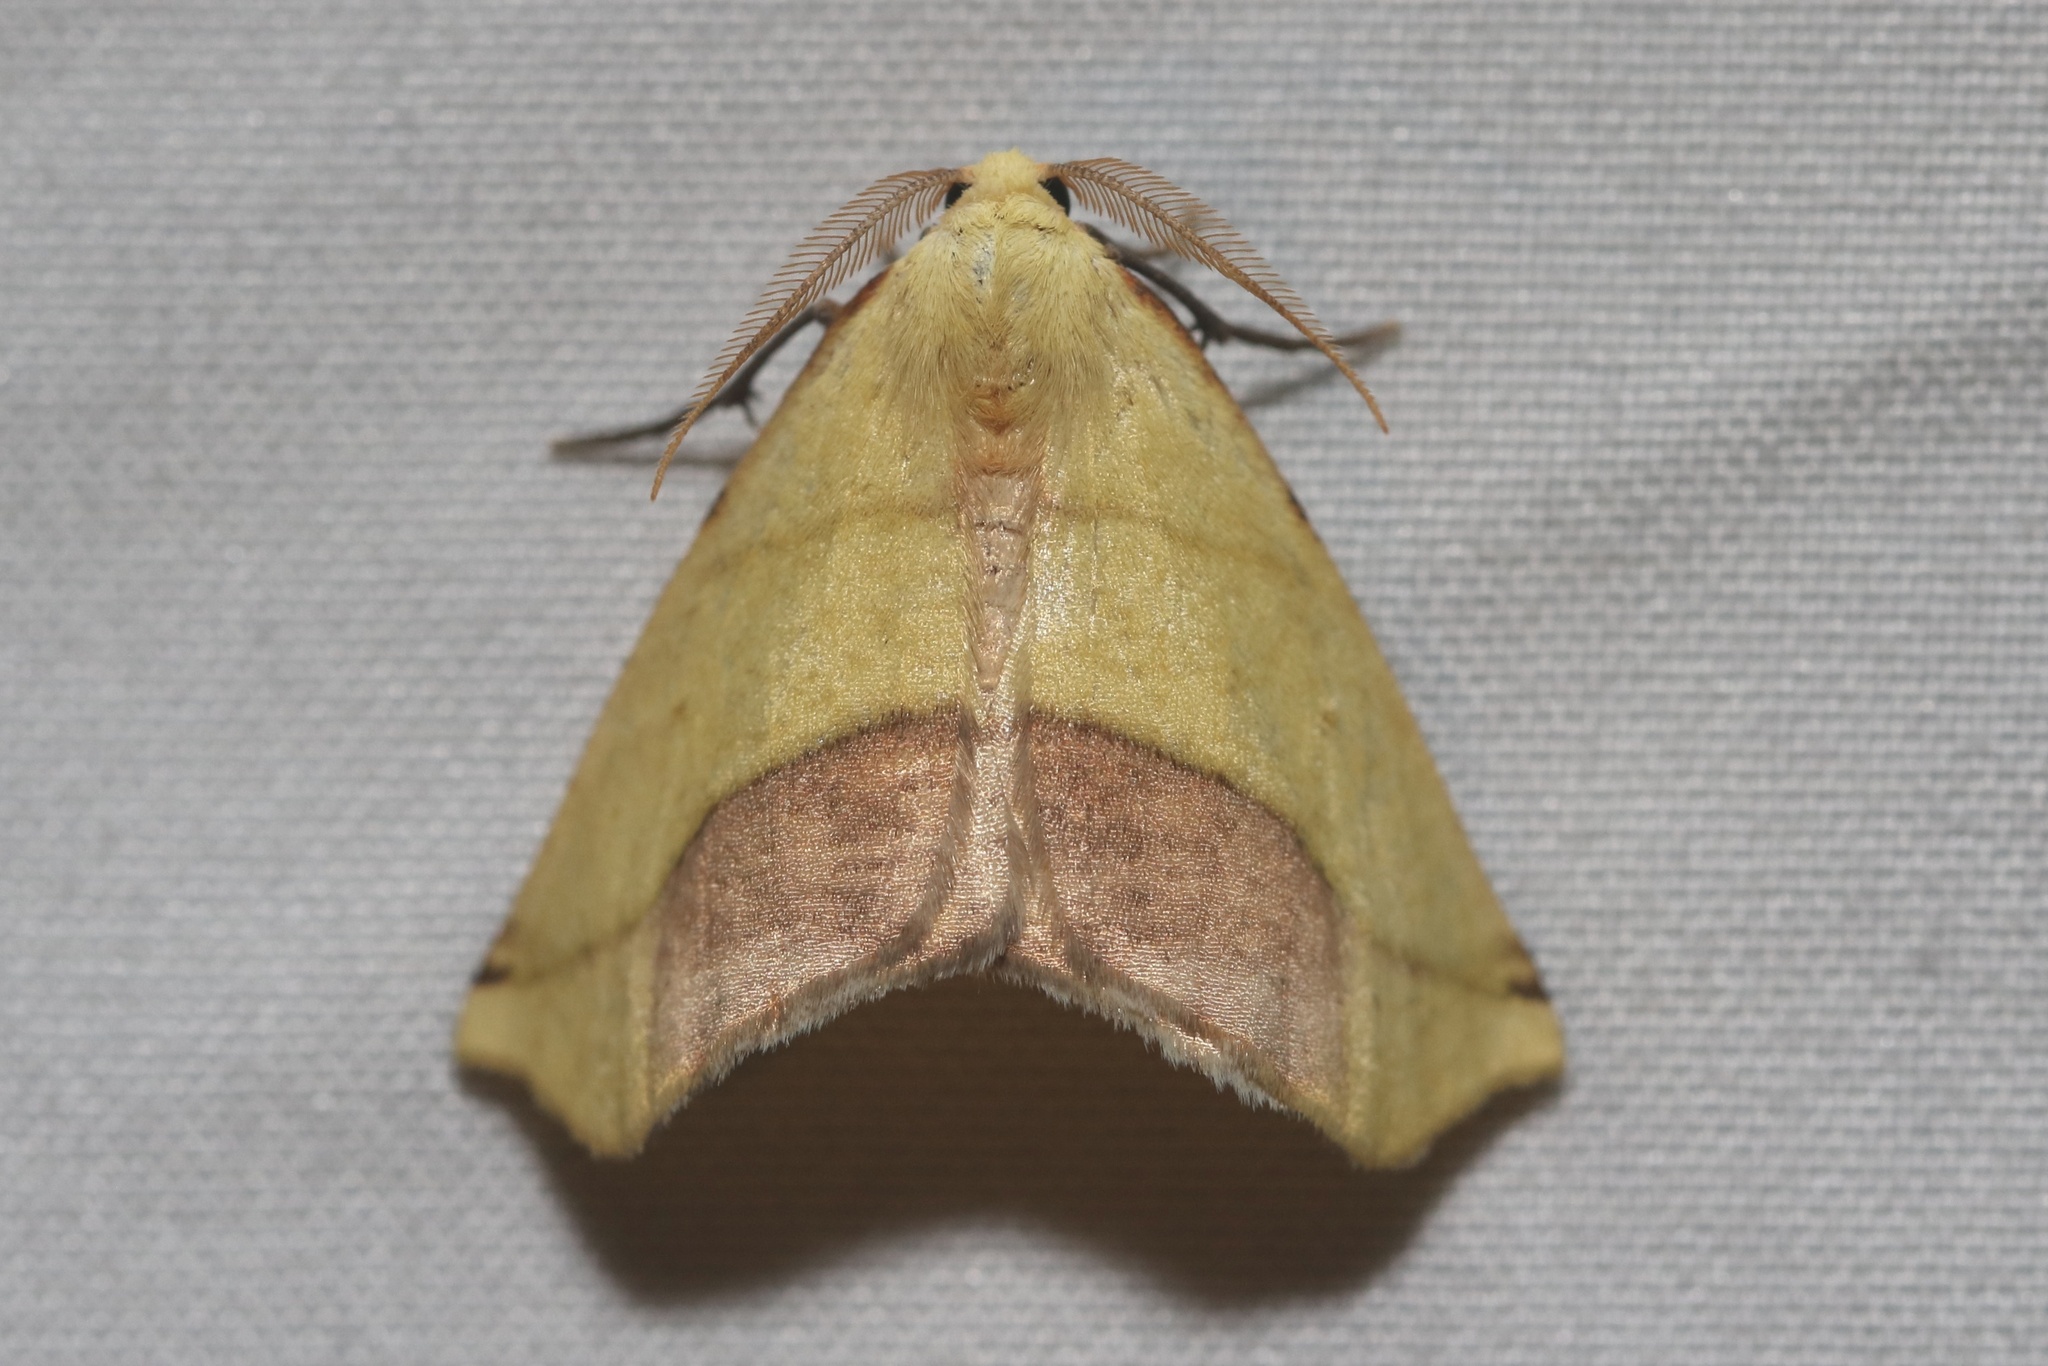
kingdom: Animalia
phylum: Arthropoda
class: Insecta
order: Lepidoptera
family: Geometridae
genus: Sicya
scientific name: Sicya macularia
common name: Sharp-lined yellow
